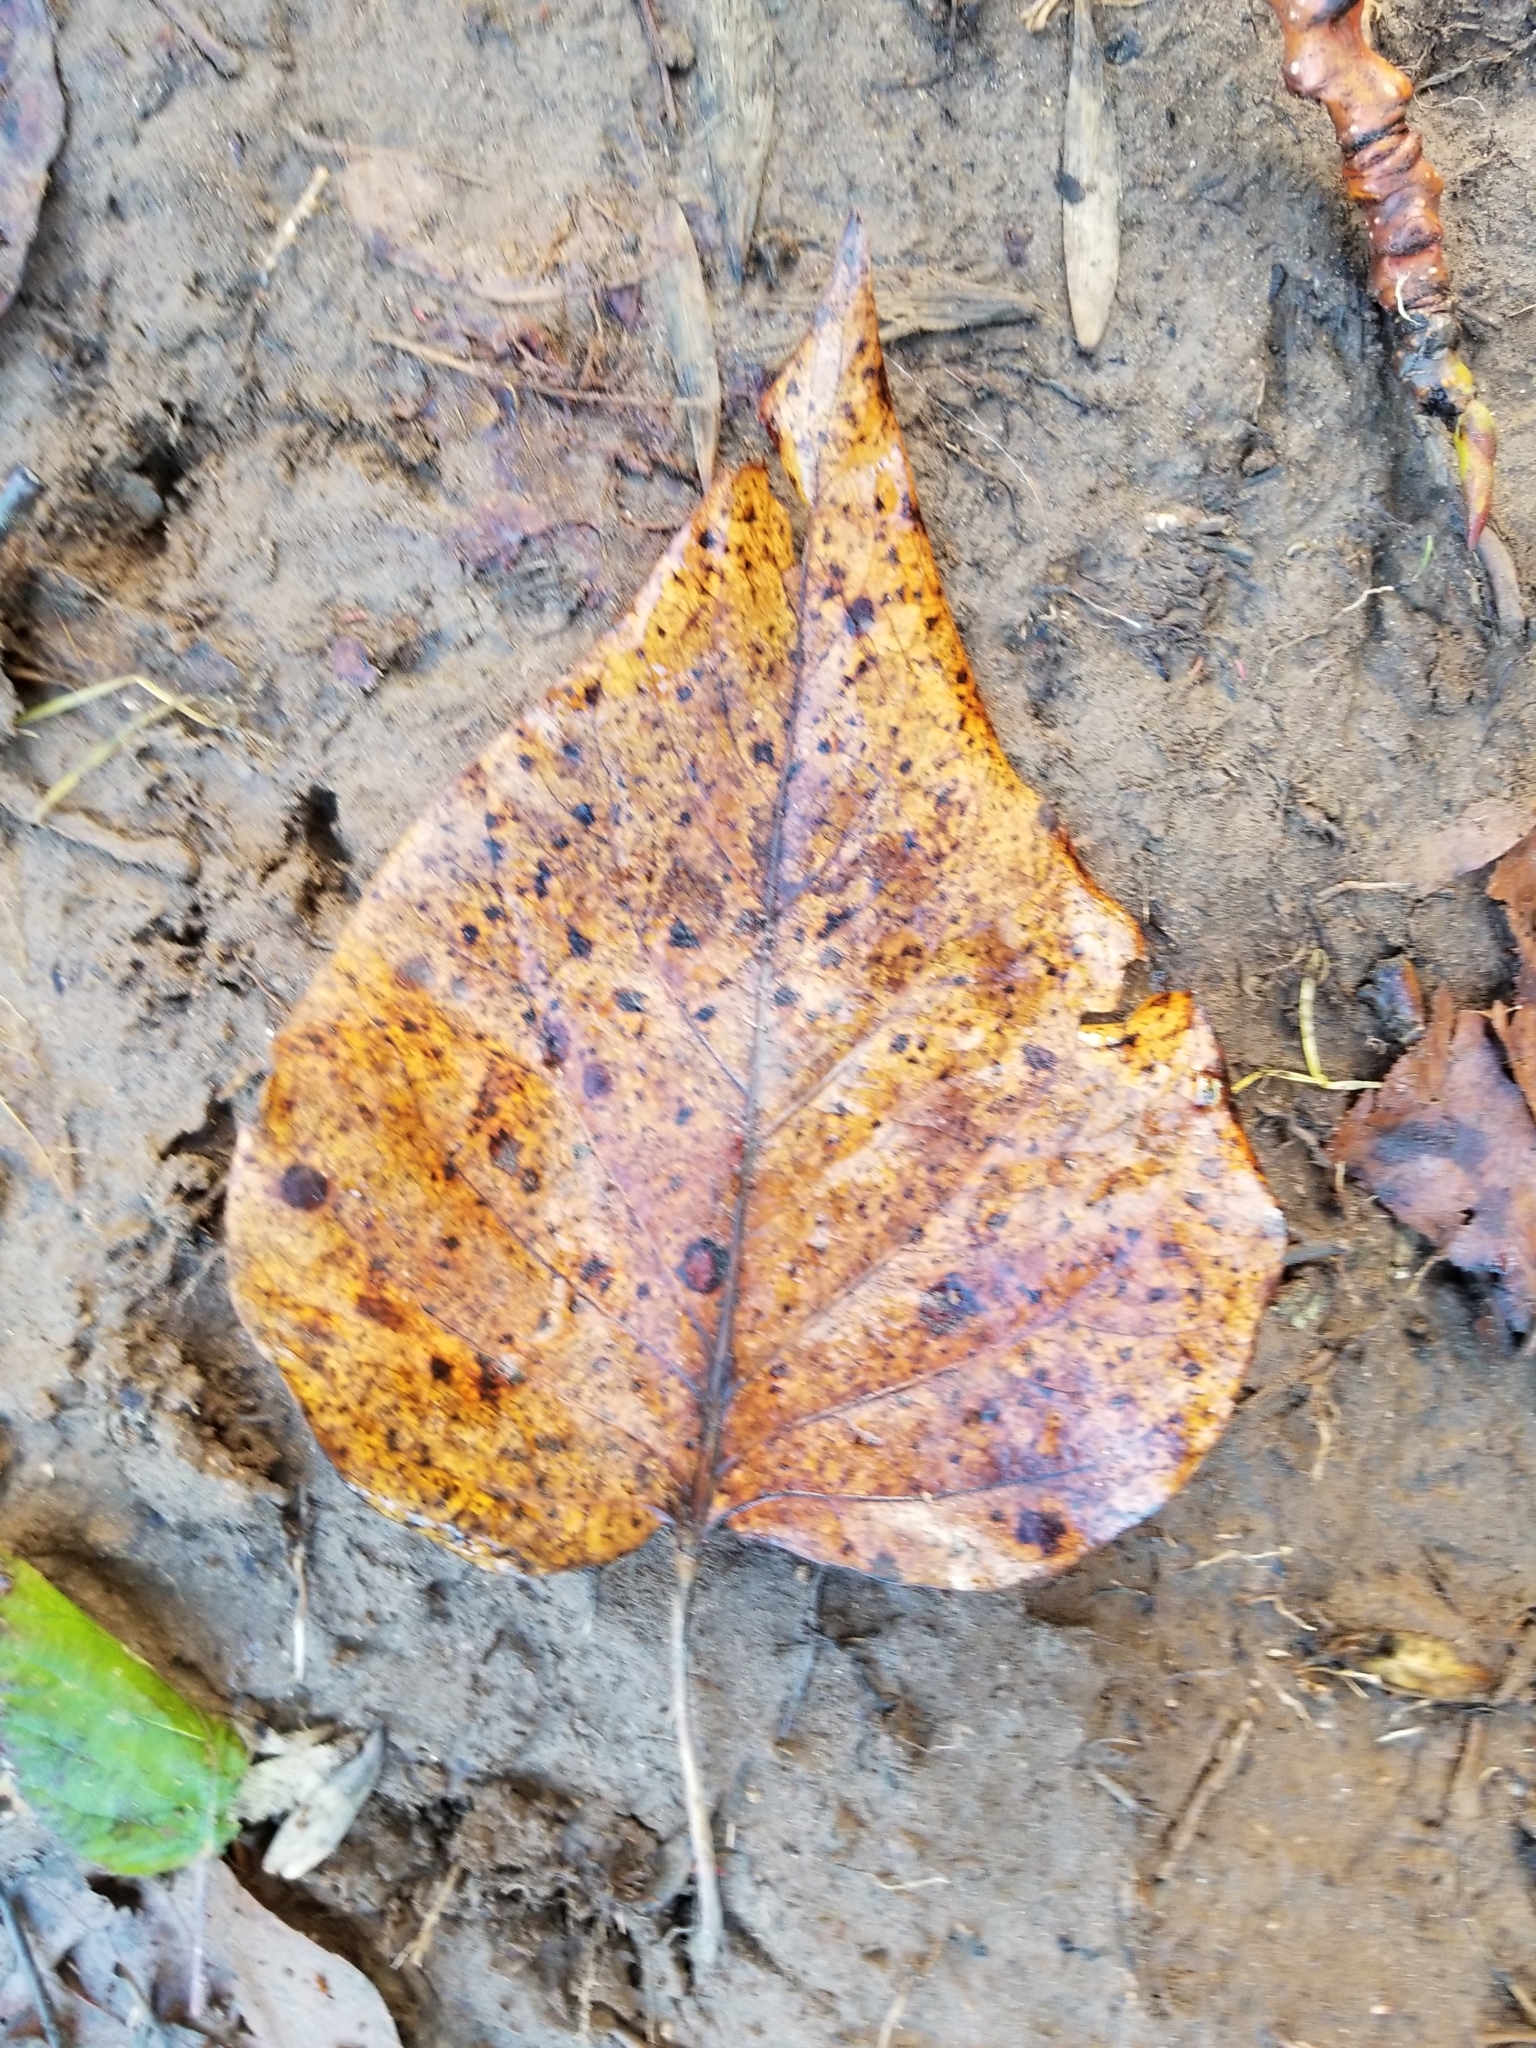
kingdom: Plantae
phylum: Tracheophyta
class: Magnoliopsida
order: Malpighiales
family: Salicaceae
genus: Populus
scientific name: Populus trichocarpa
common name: Black cottonwood
